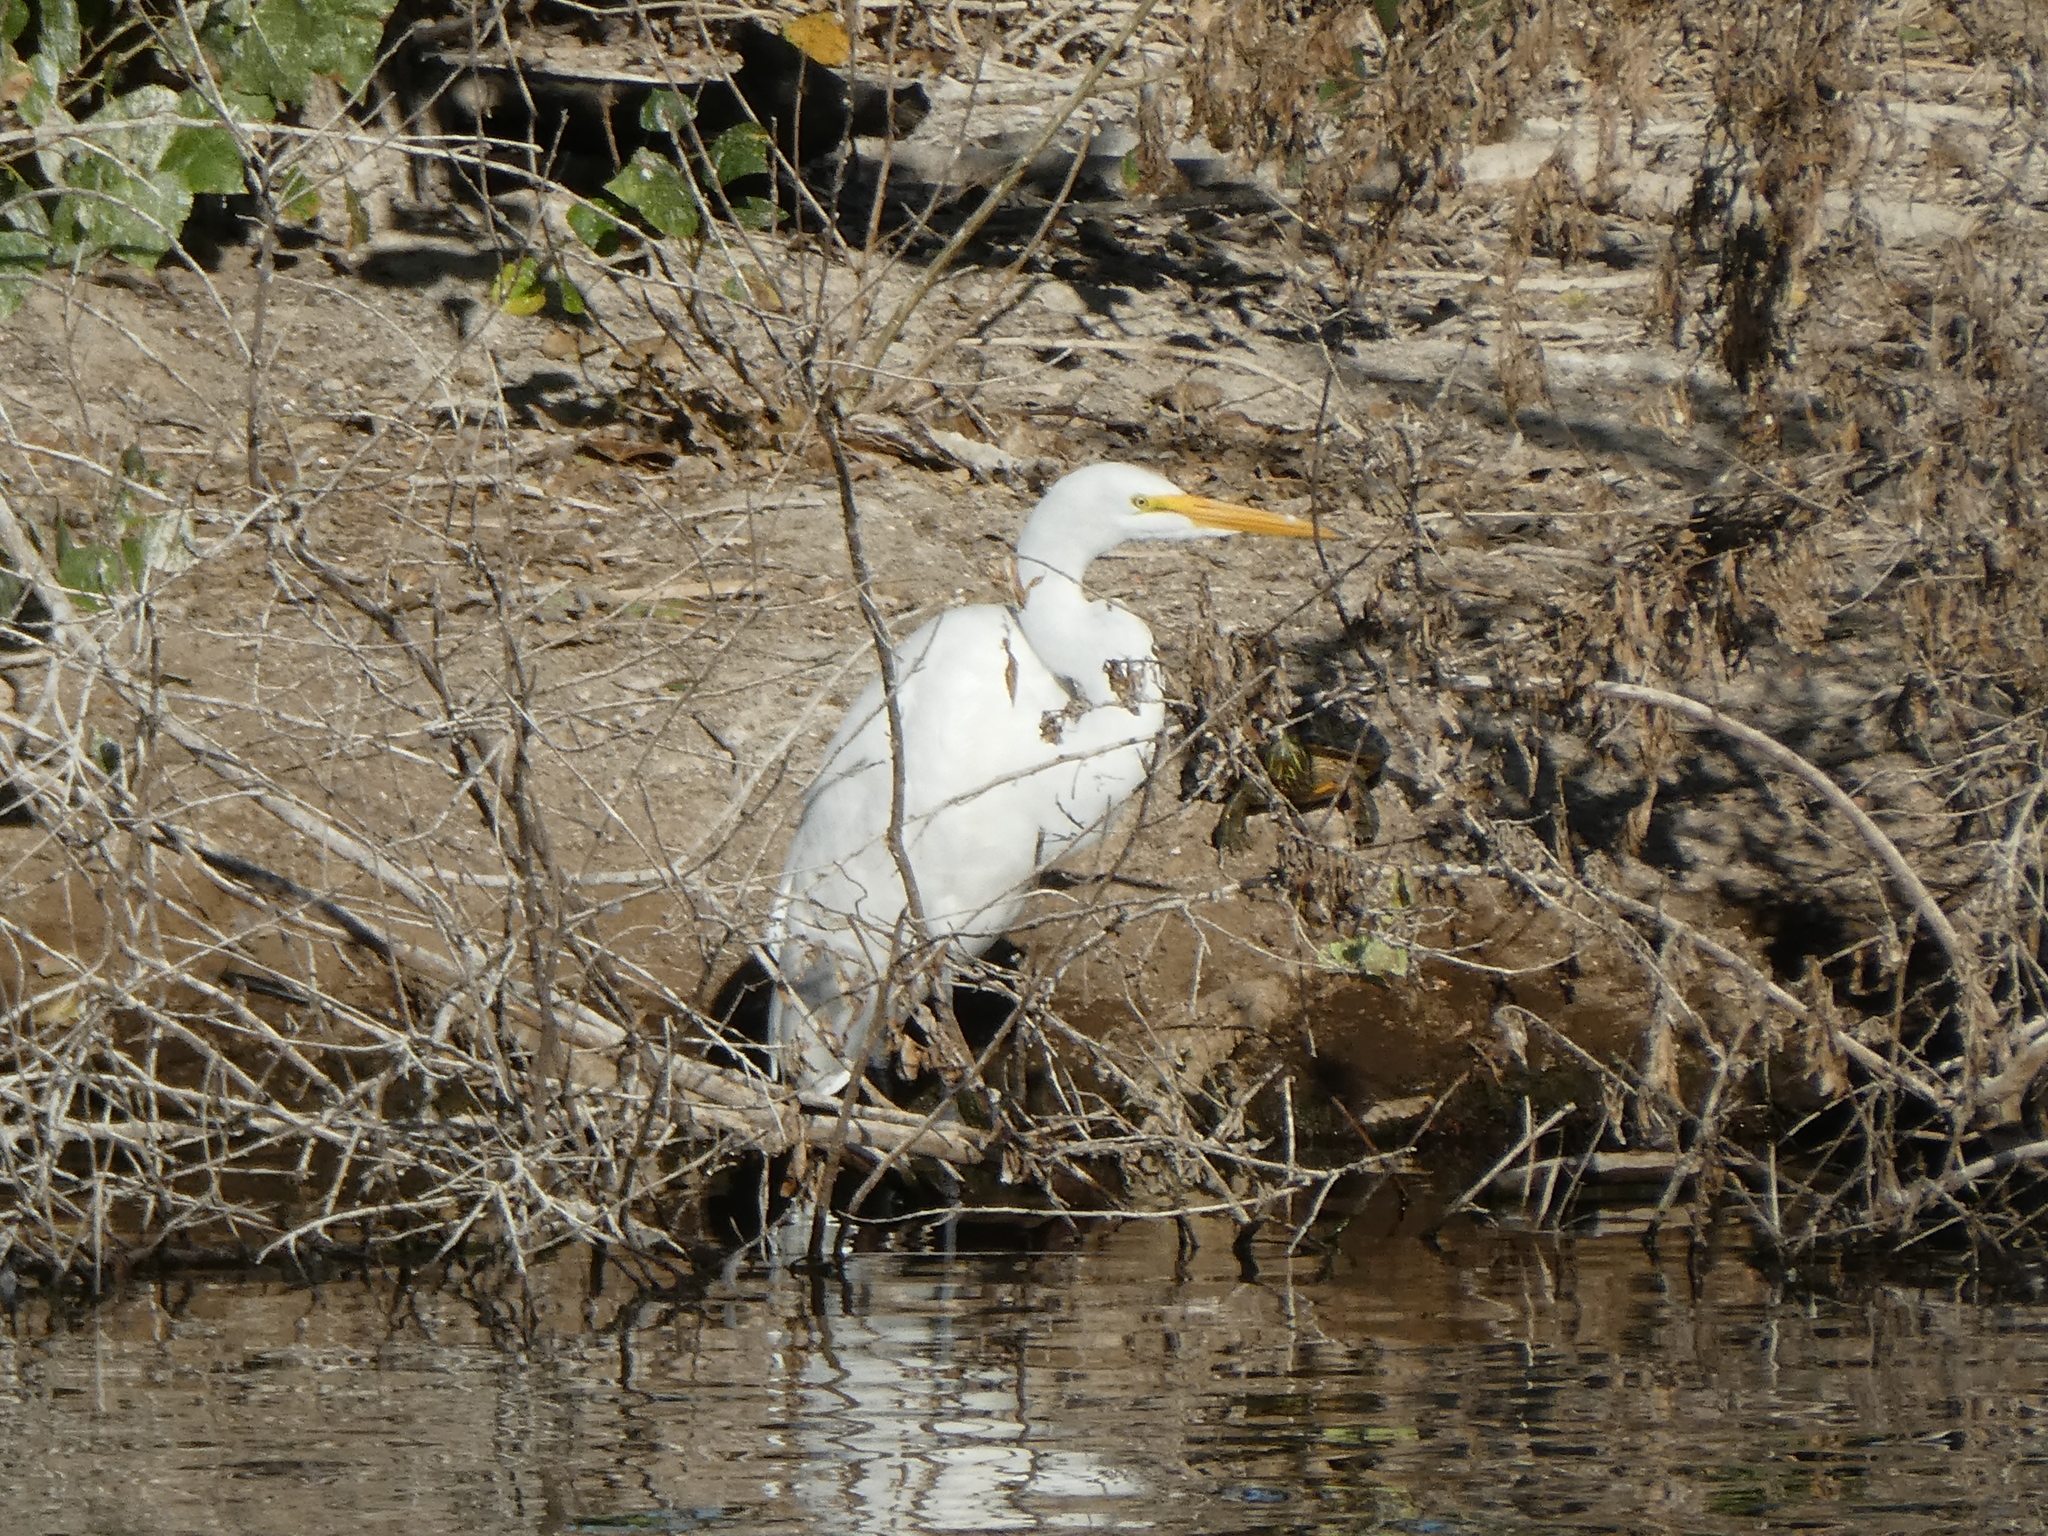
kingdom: Animalia
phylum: Chordata
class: Aves
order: Pelecaniformes
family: Ardeidae
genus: Ardea
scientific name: Ardea alba
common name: Great egret
